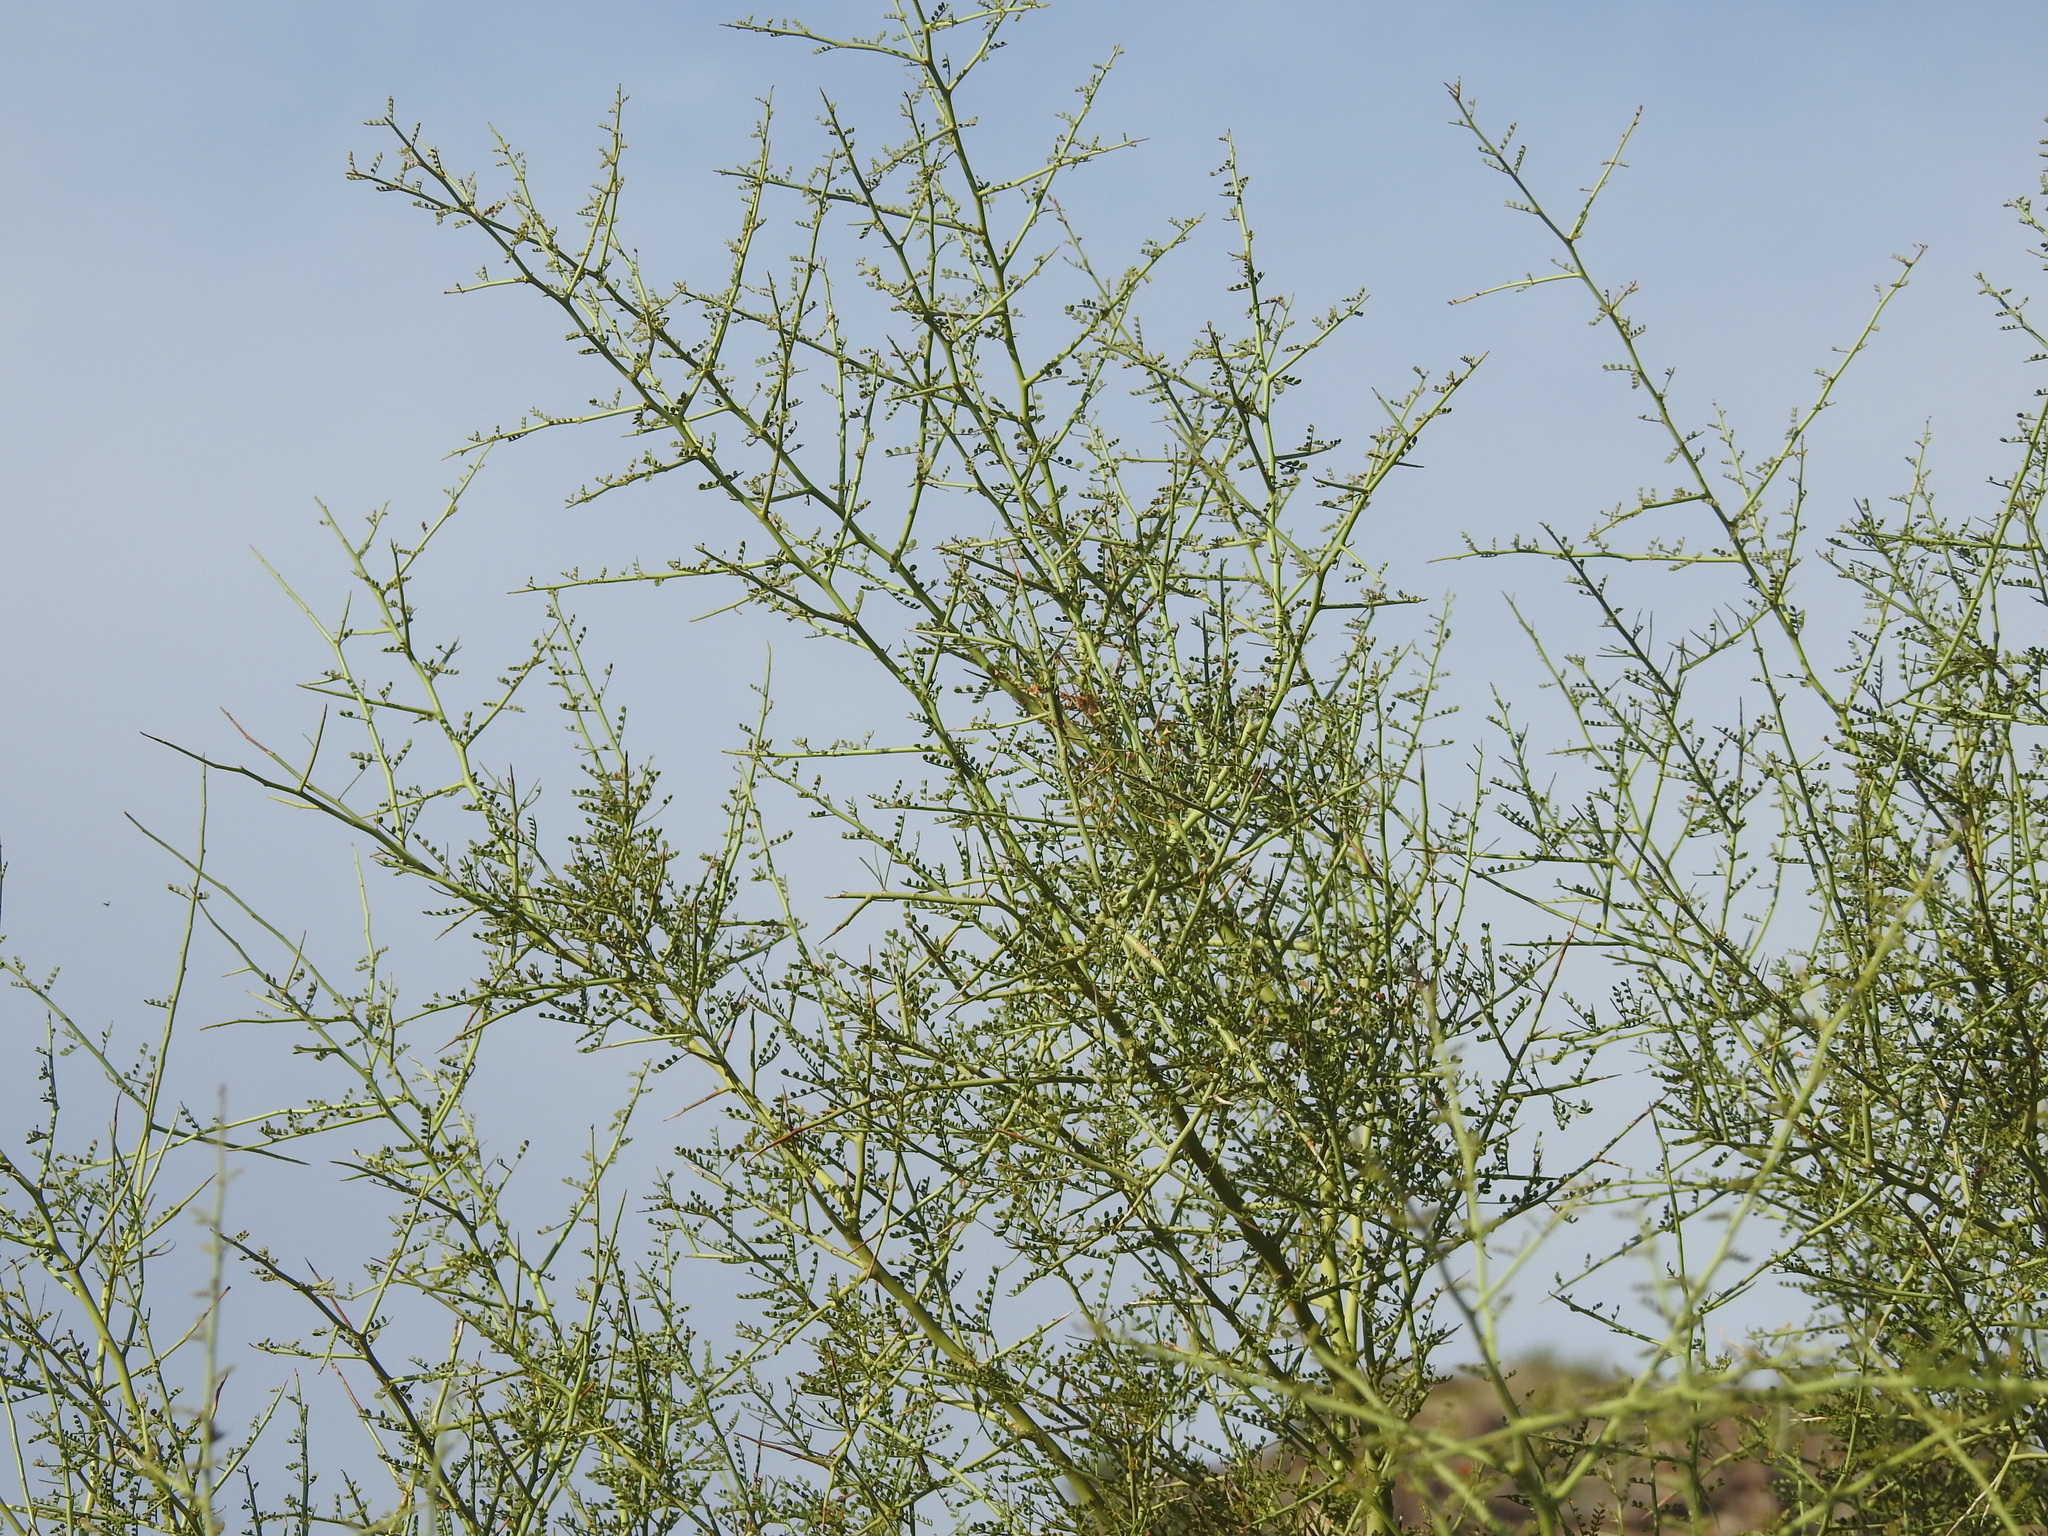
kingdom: Plantae
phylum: Tracheophyta
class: Magnoliopsida
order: Fabales
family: Fabaceae
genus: Parkinsonia
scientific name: Parkinsonia microphylla
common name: Yellow paloverde
